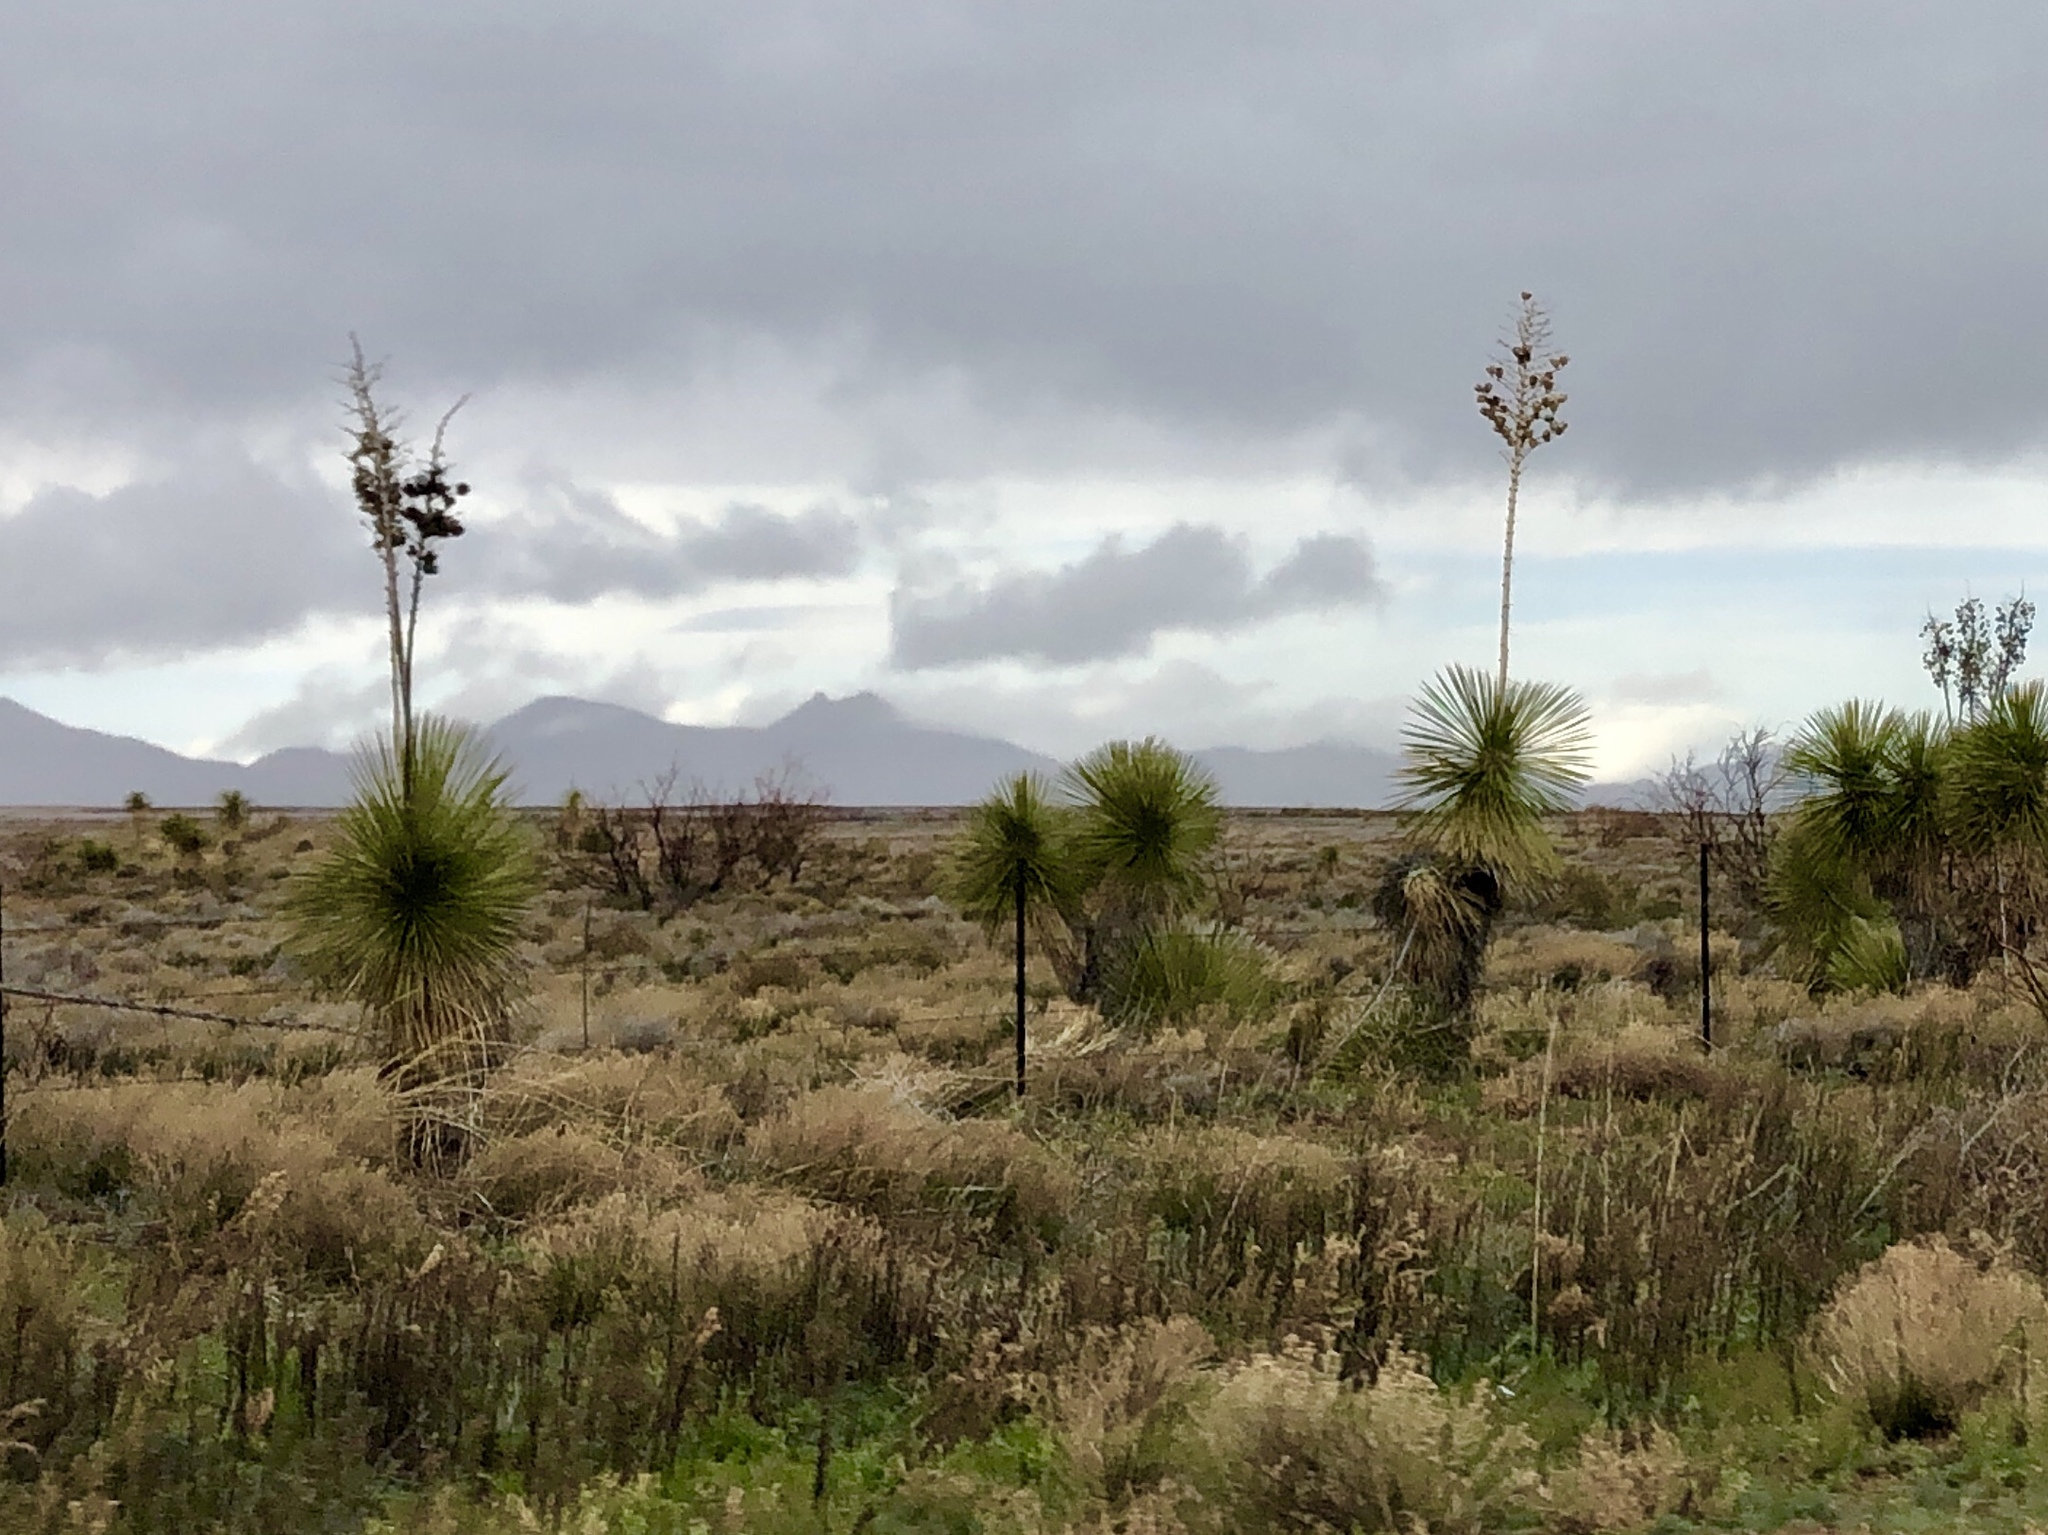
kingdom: Plantae
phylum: Tracheophyta
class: Liliopsida
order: Asparagales
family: Asparagaceae
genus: Yucca
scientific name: Yucca elata
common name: Palmella
